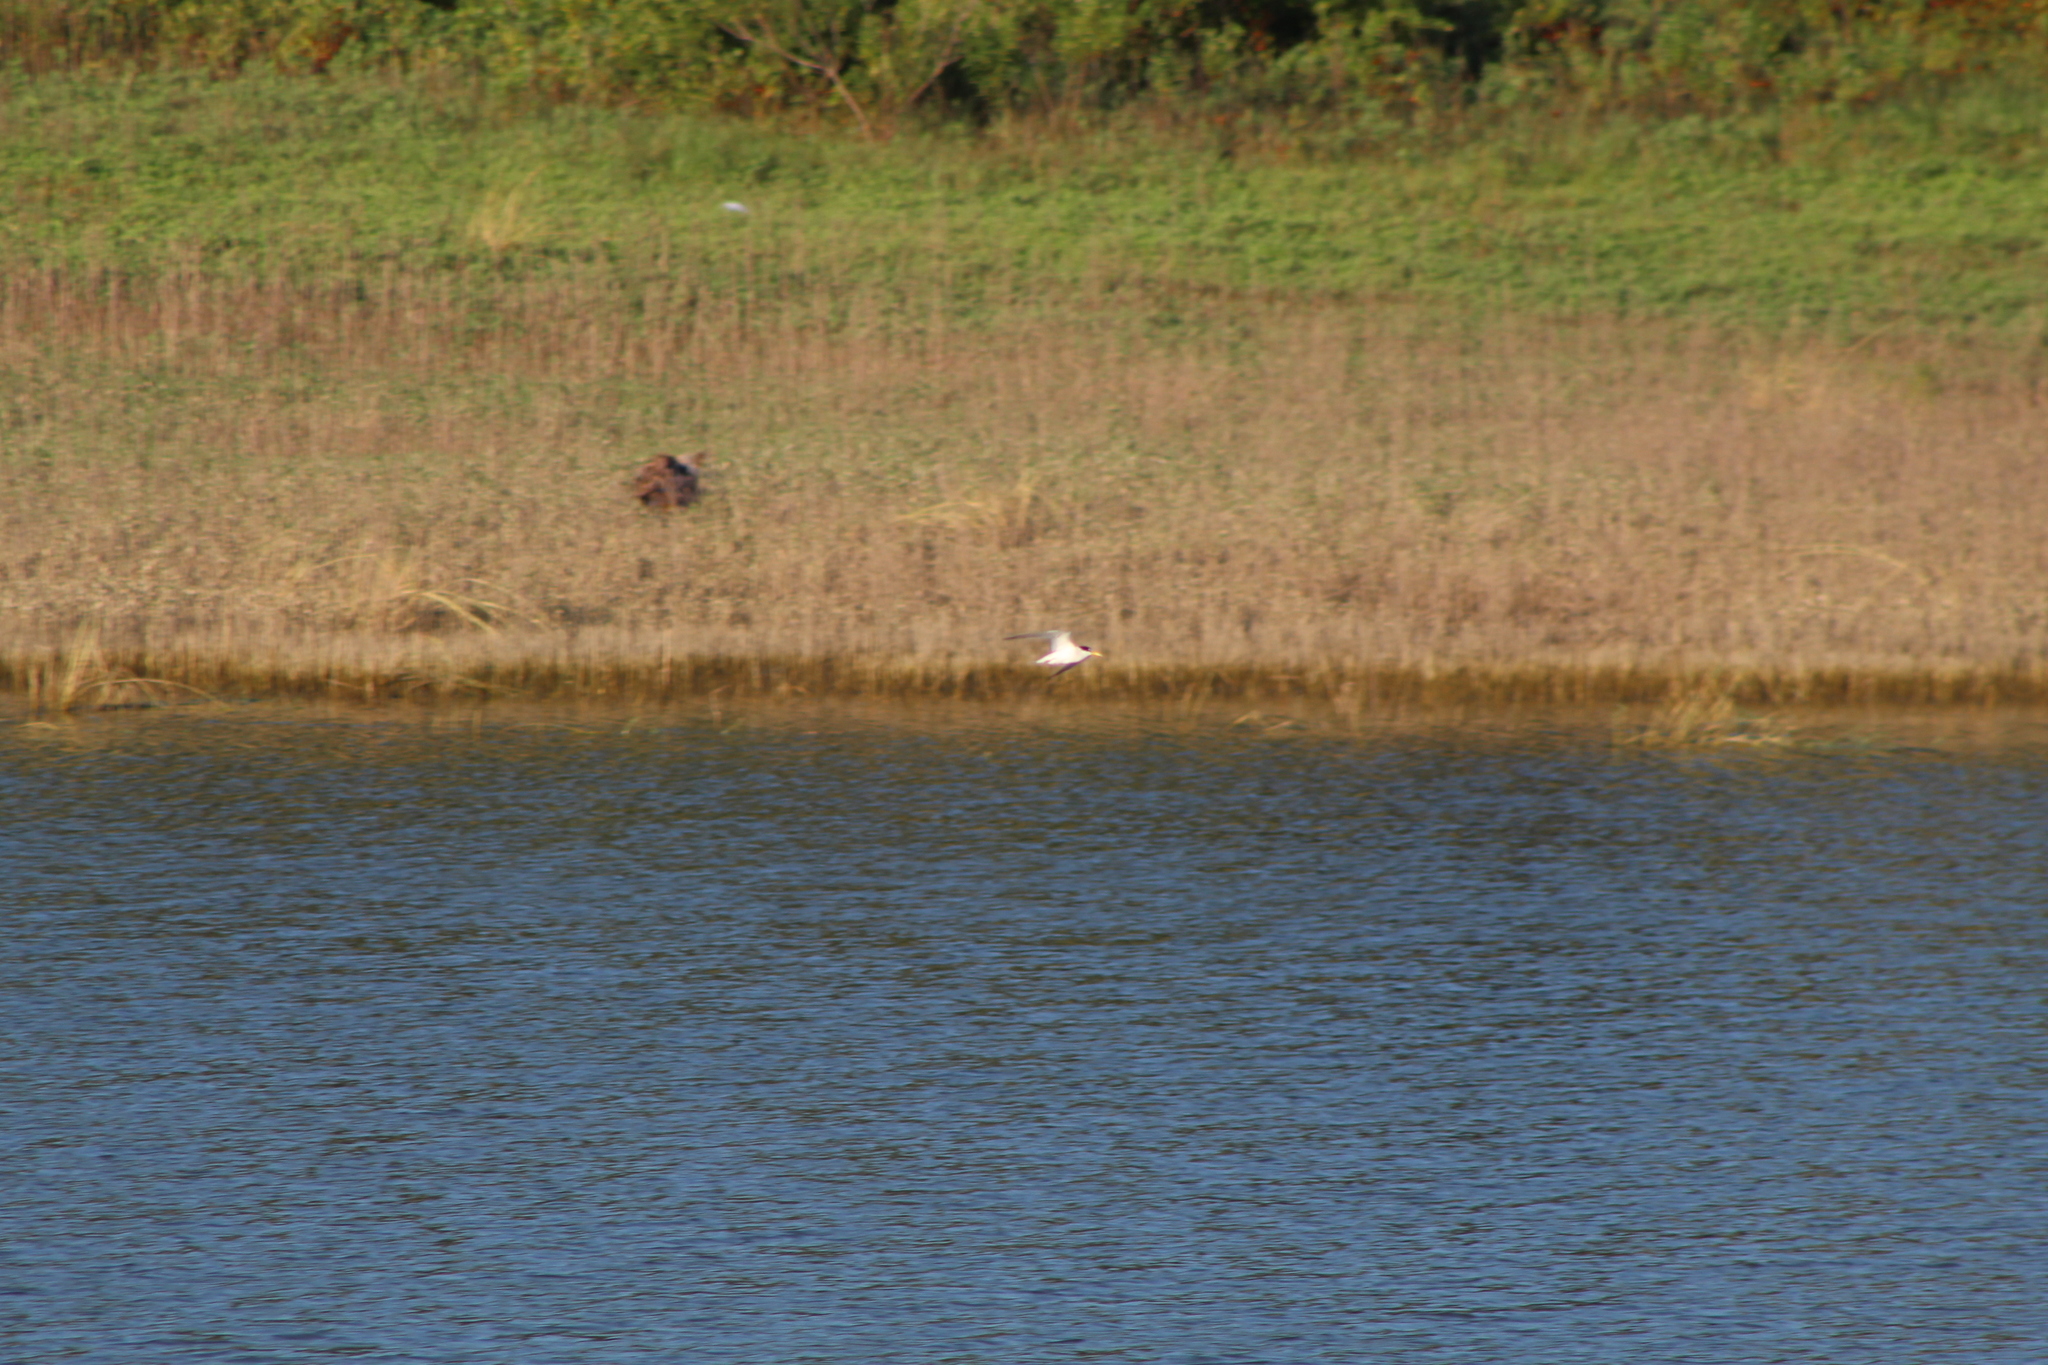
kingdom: Animalia
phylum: Chordata
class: Aves
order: Charadriiformes
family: Laridae
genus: Sternula
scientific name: Sternula antillarum
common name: Least tern
